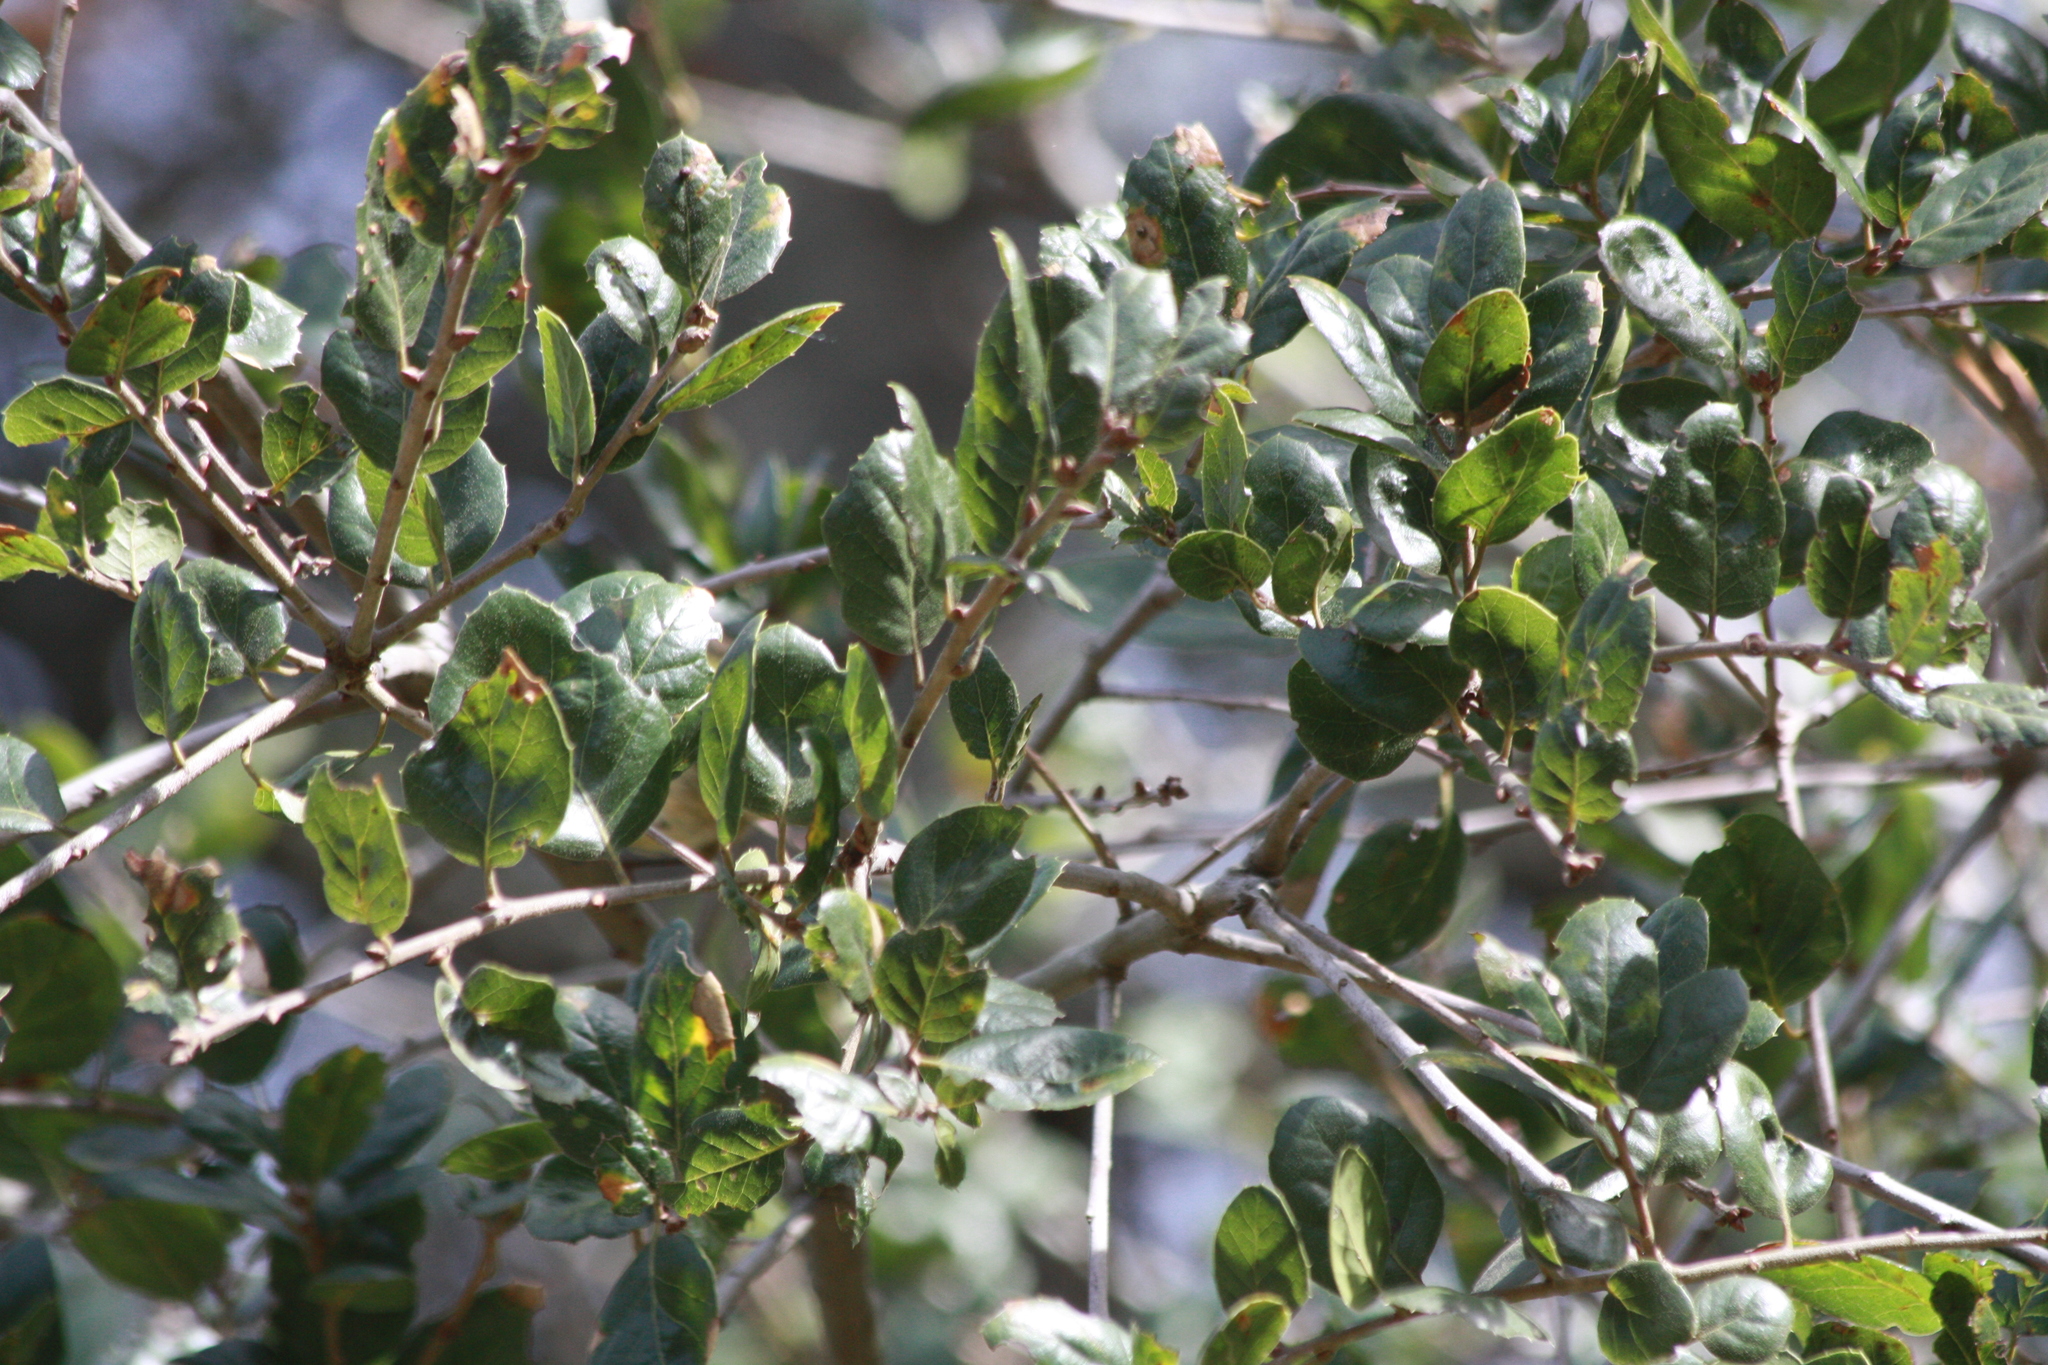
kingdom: Plantae
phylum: Tracheophyta
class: Magnoliopsida
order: Fagales
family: Fagaceae
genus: Quercus
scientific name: Quercus agrifolia
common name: California live oak
